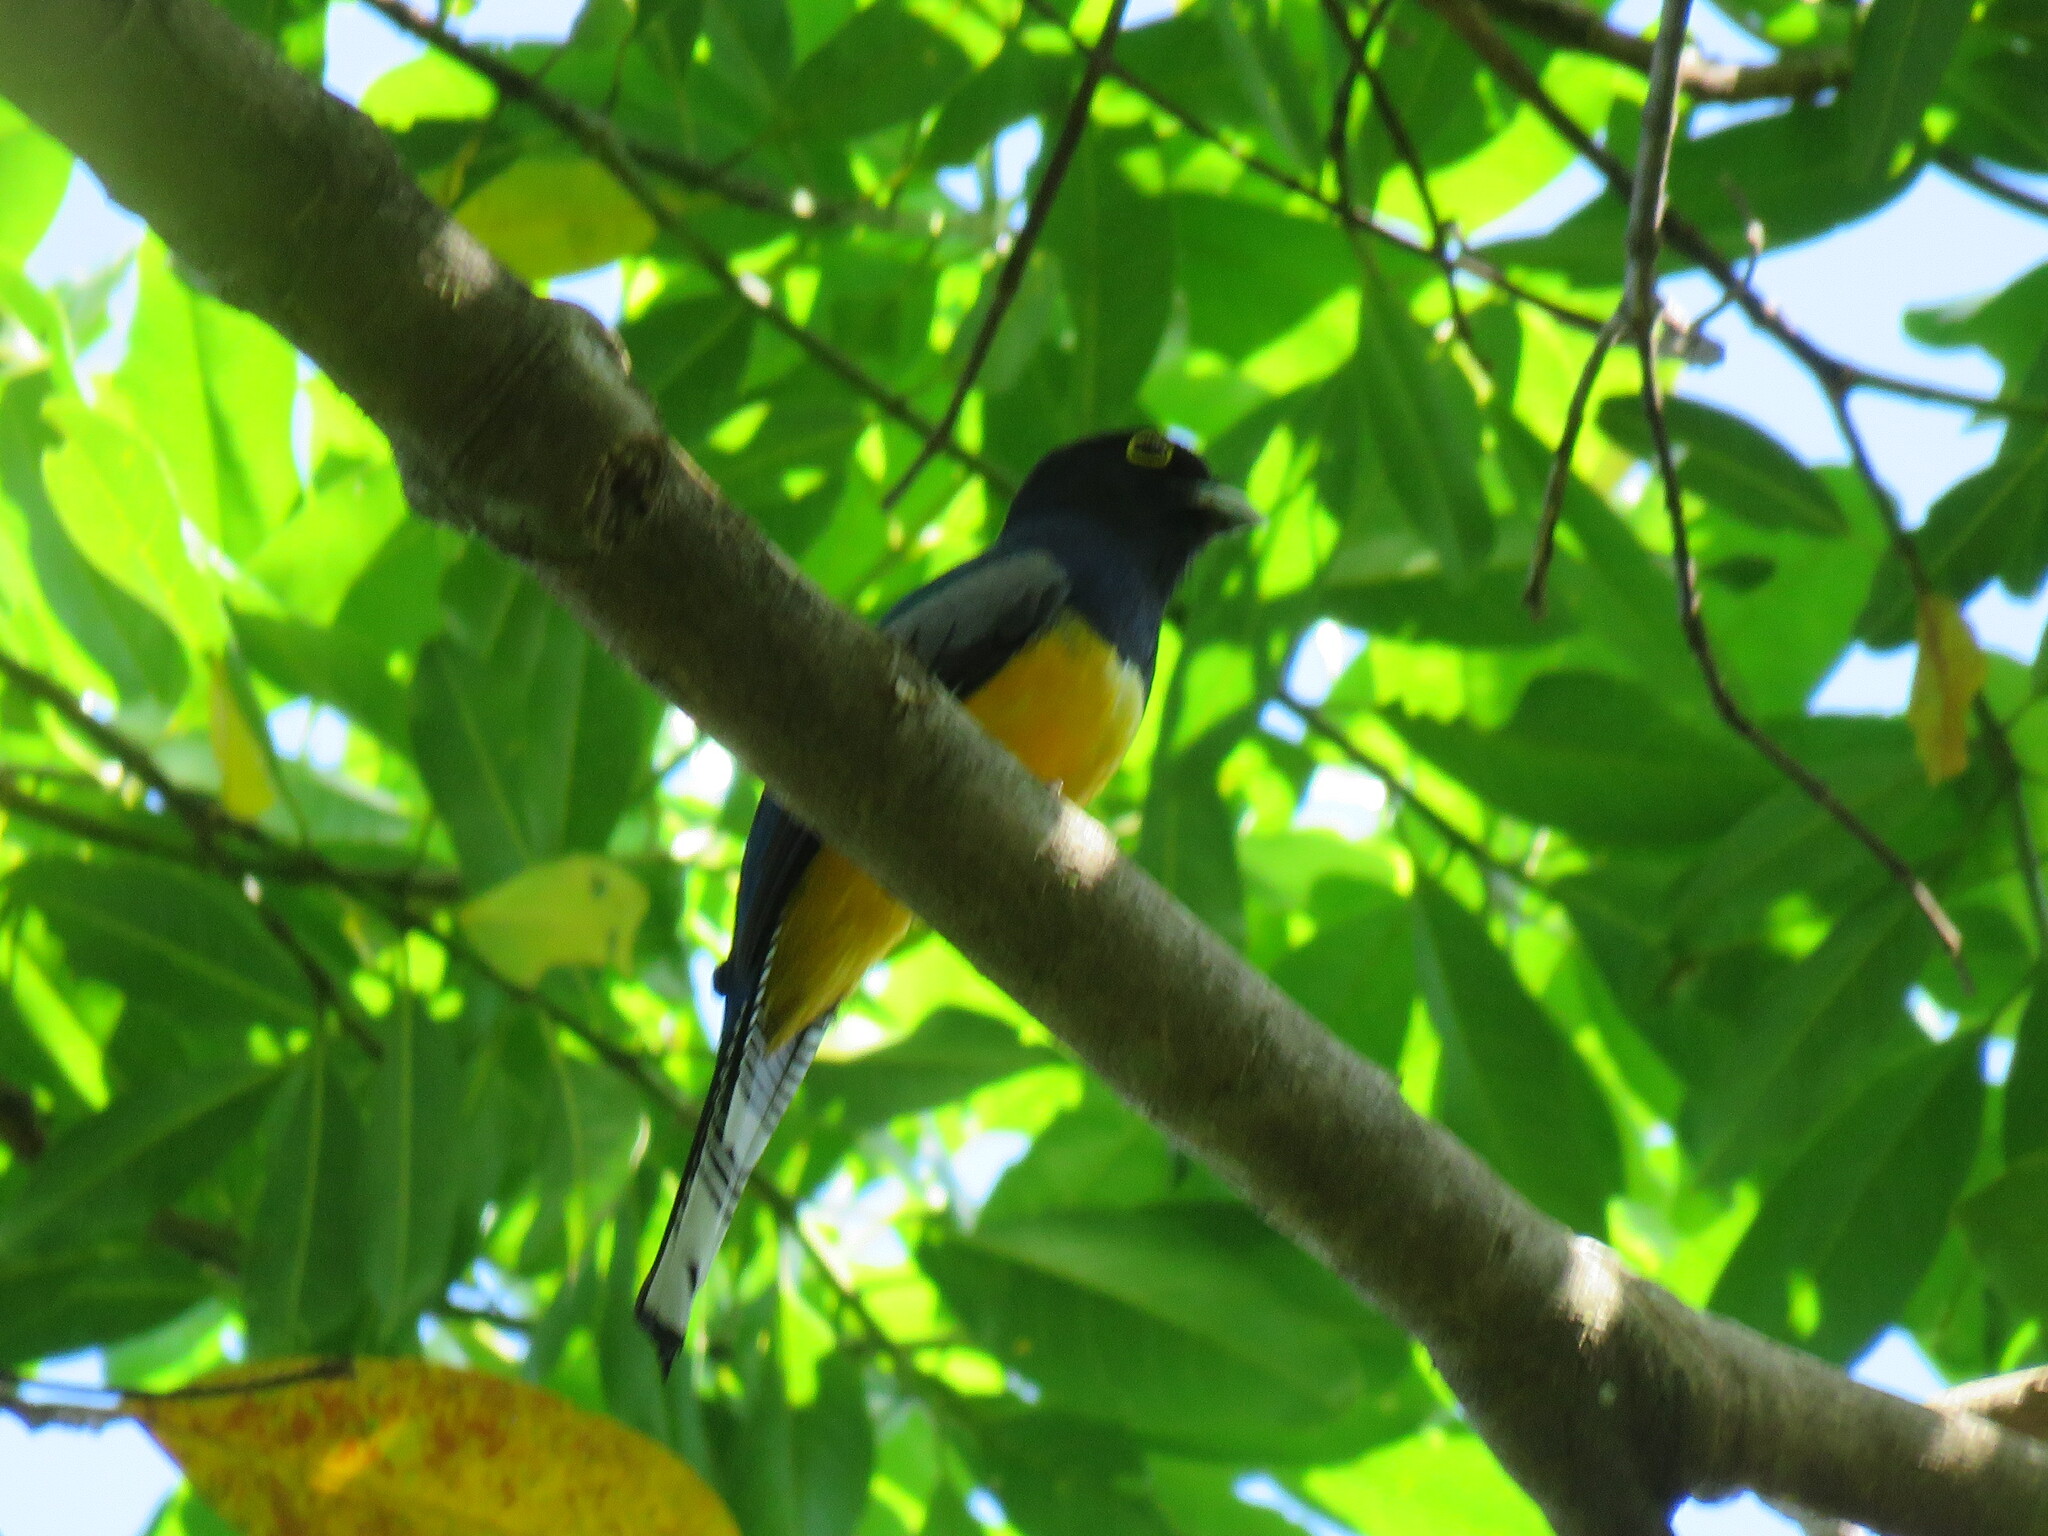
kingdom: Animalia
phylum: Chordata
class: Aves
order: Trogoniformes
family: Trogonidae
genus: Trogon
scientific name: Trogon caligatus
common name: Gartered trogon
